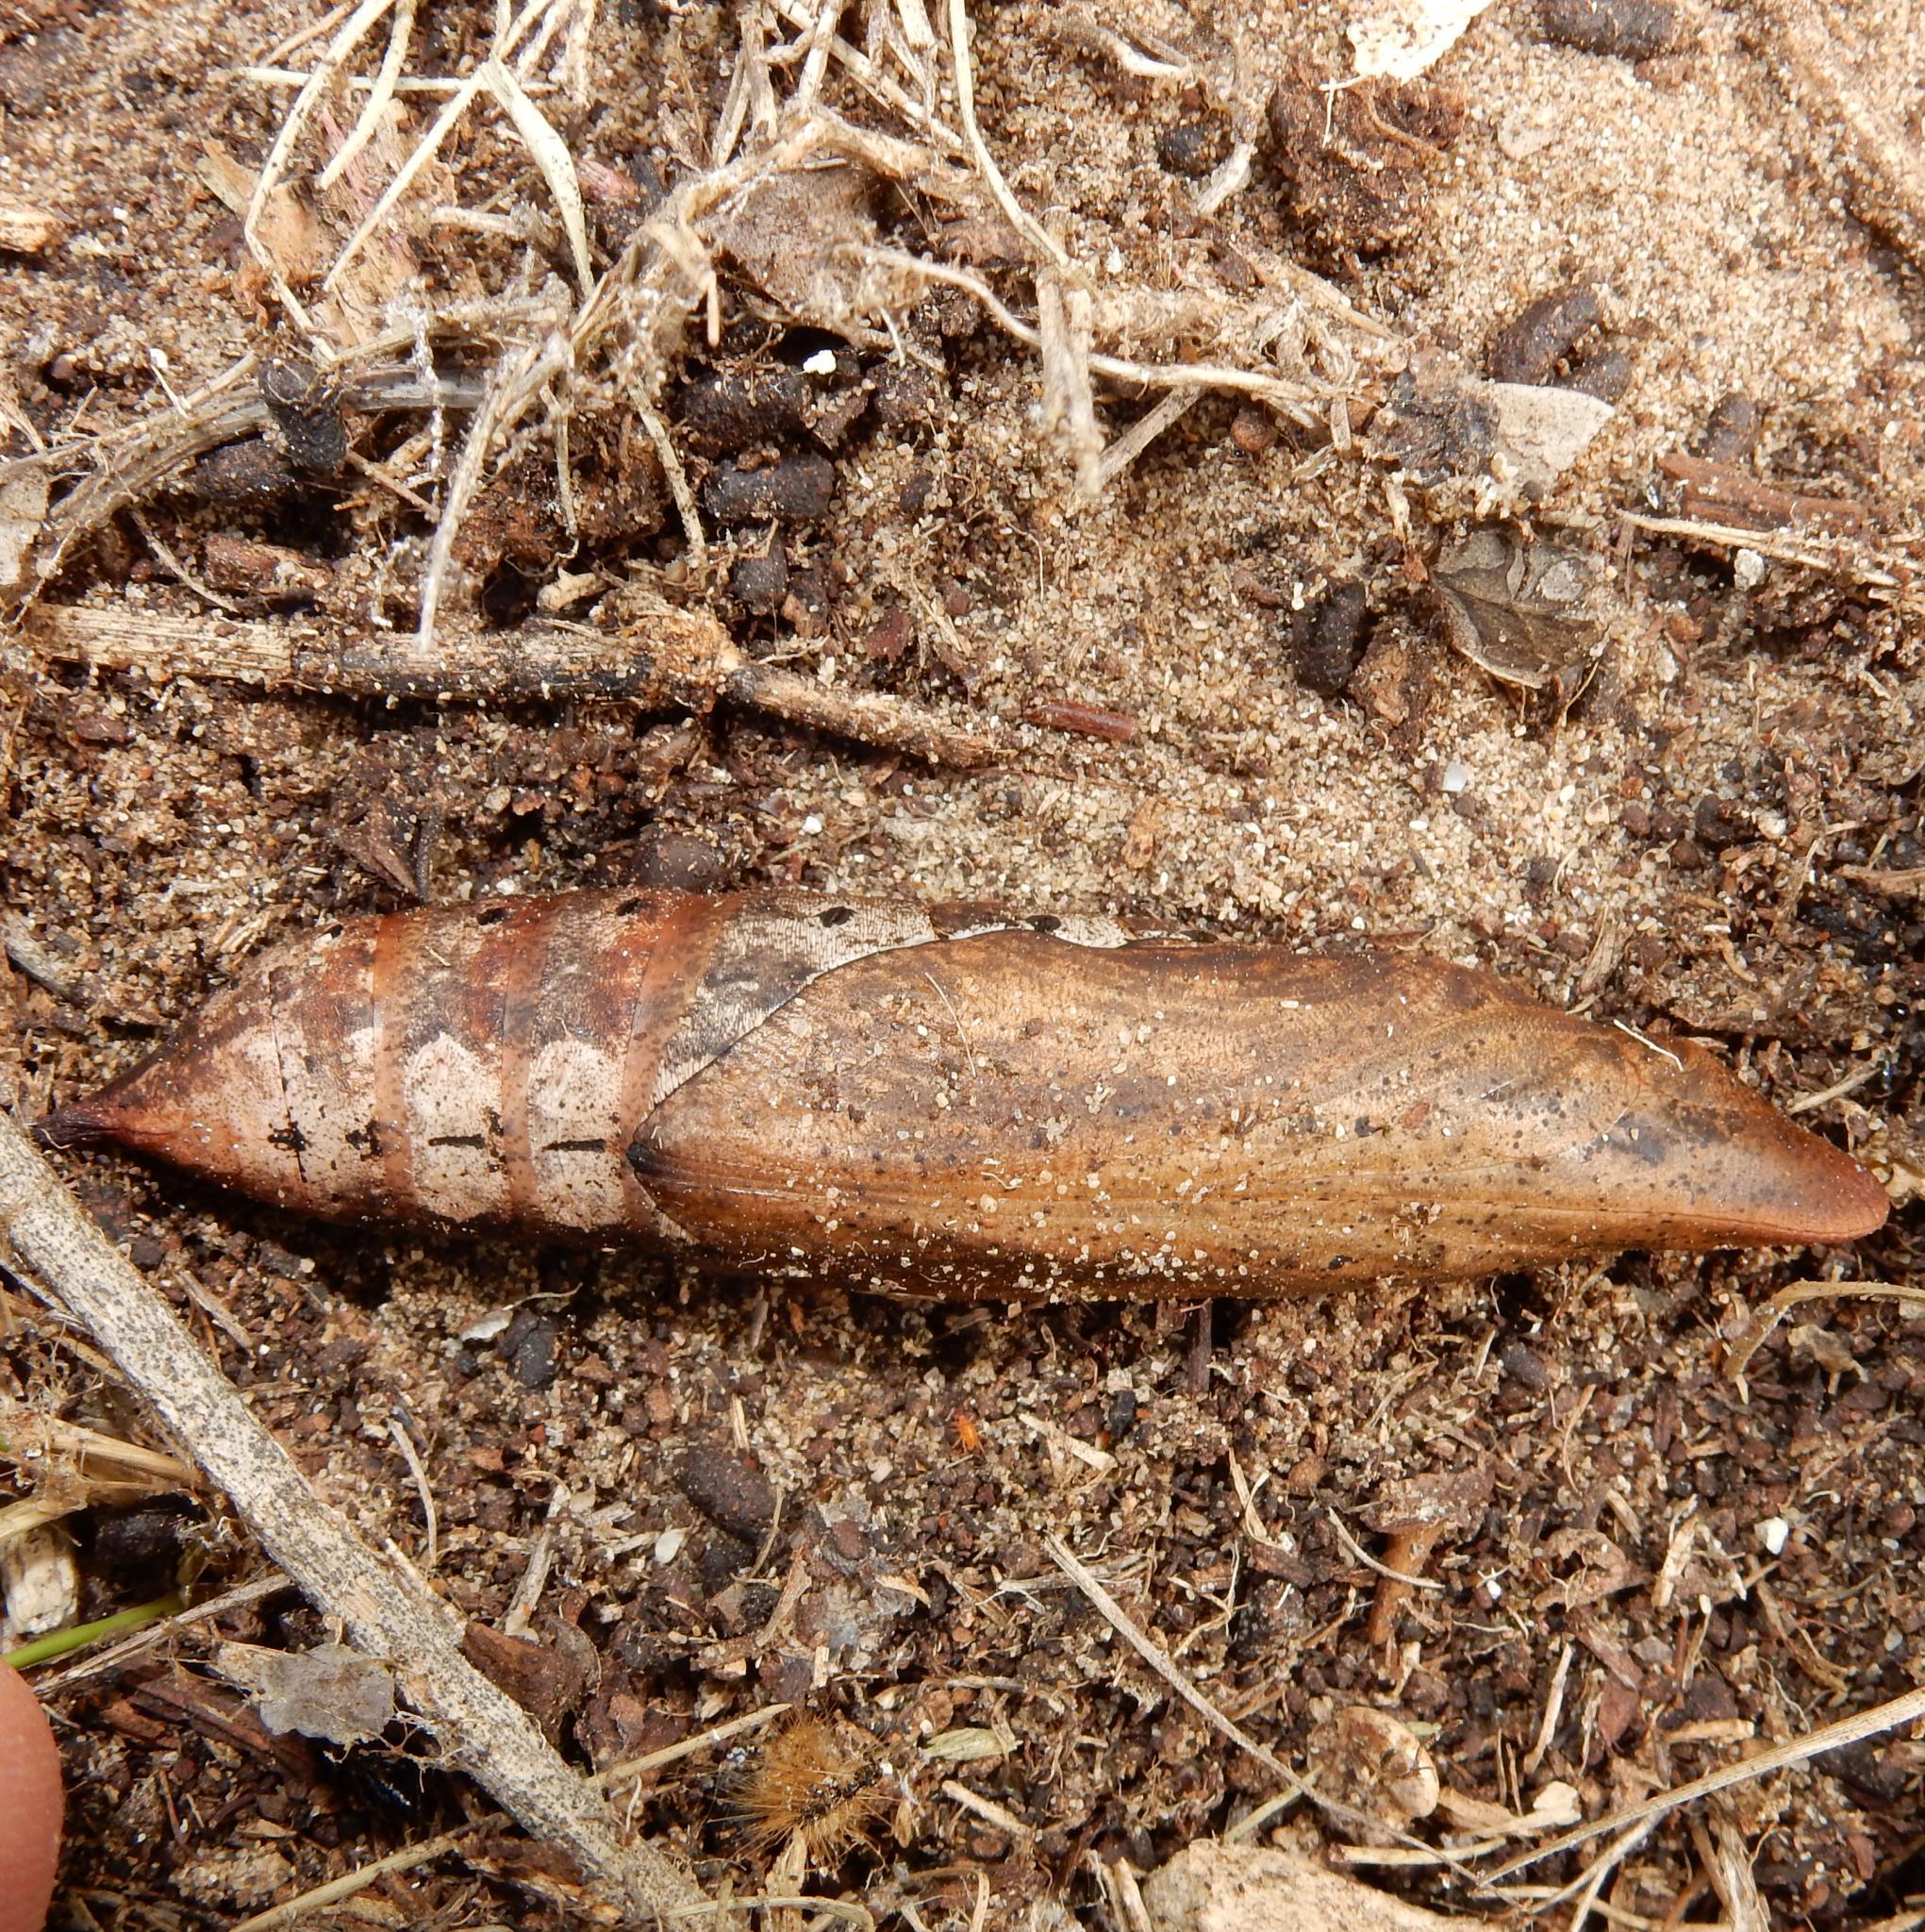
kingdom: Animalia
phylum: Arthropoda
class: Insecta
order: Lepidoptera
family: Sphingidae
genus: Hippotion
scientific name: Hippotion eson
